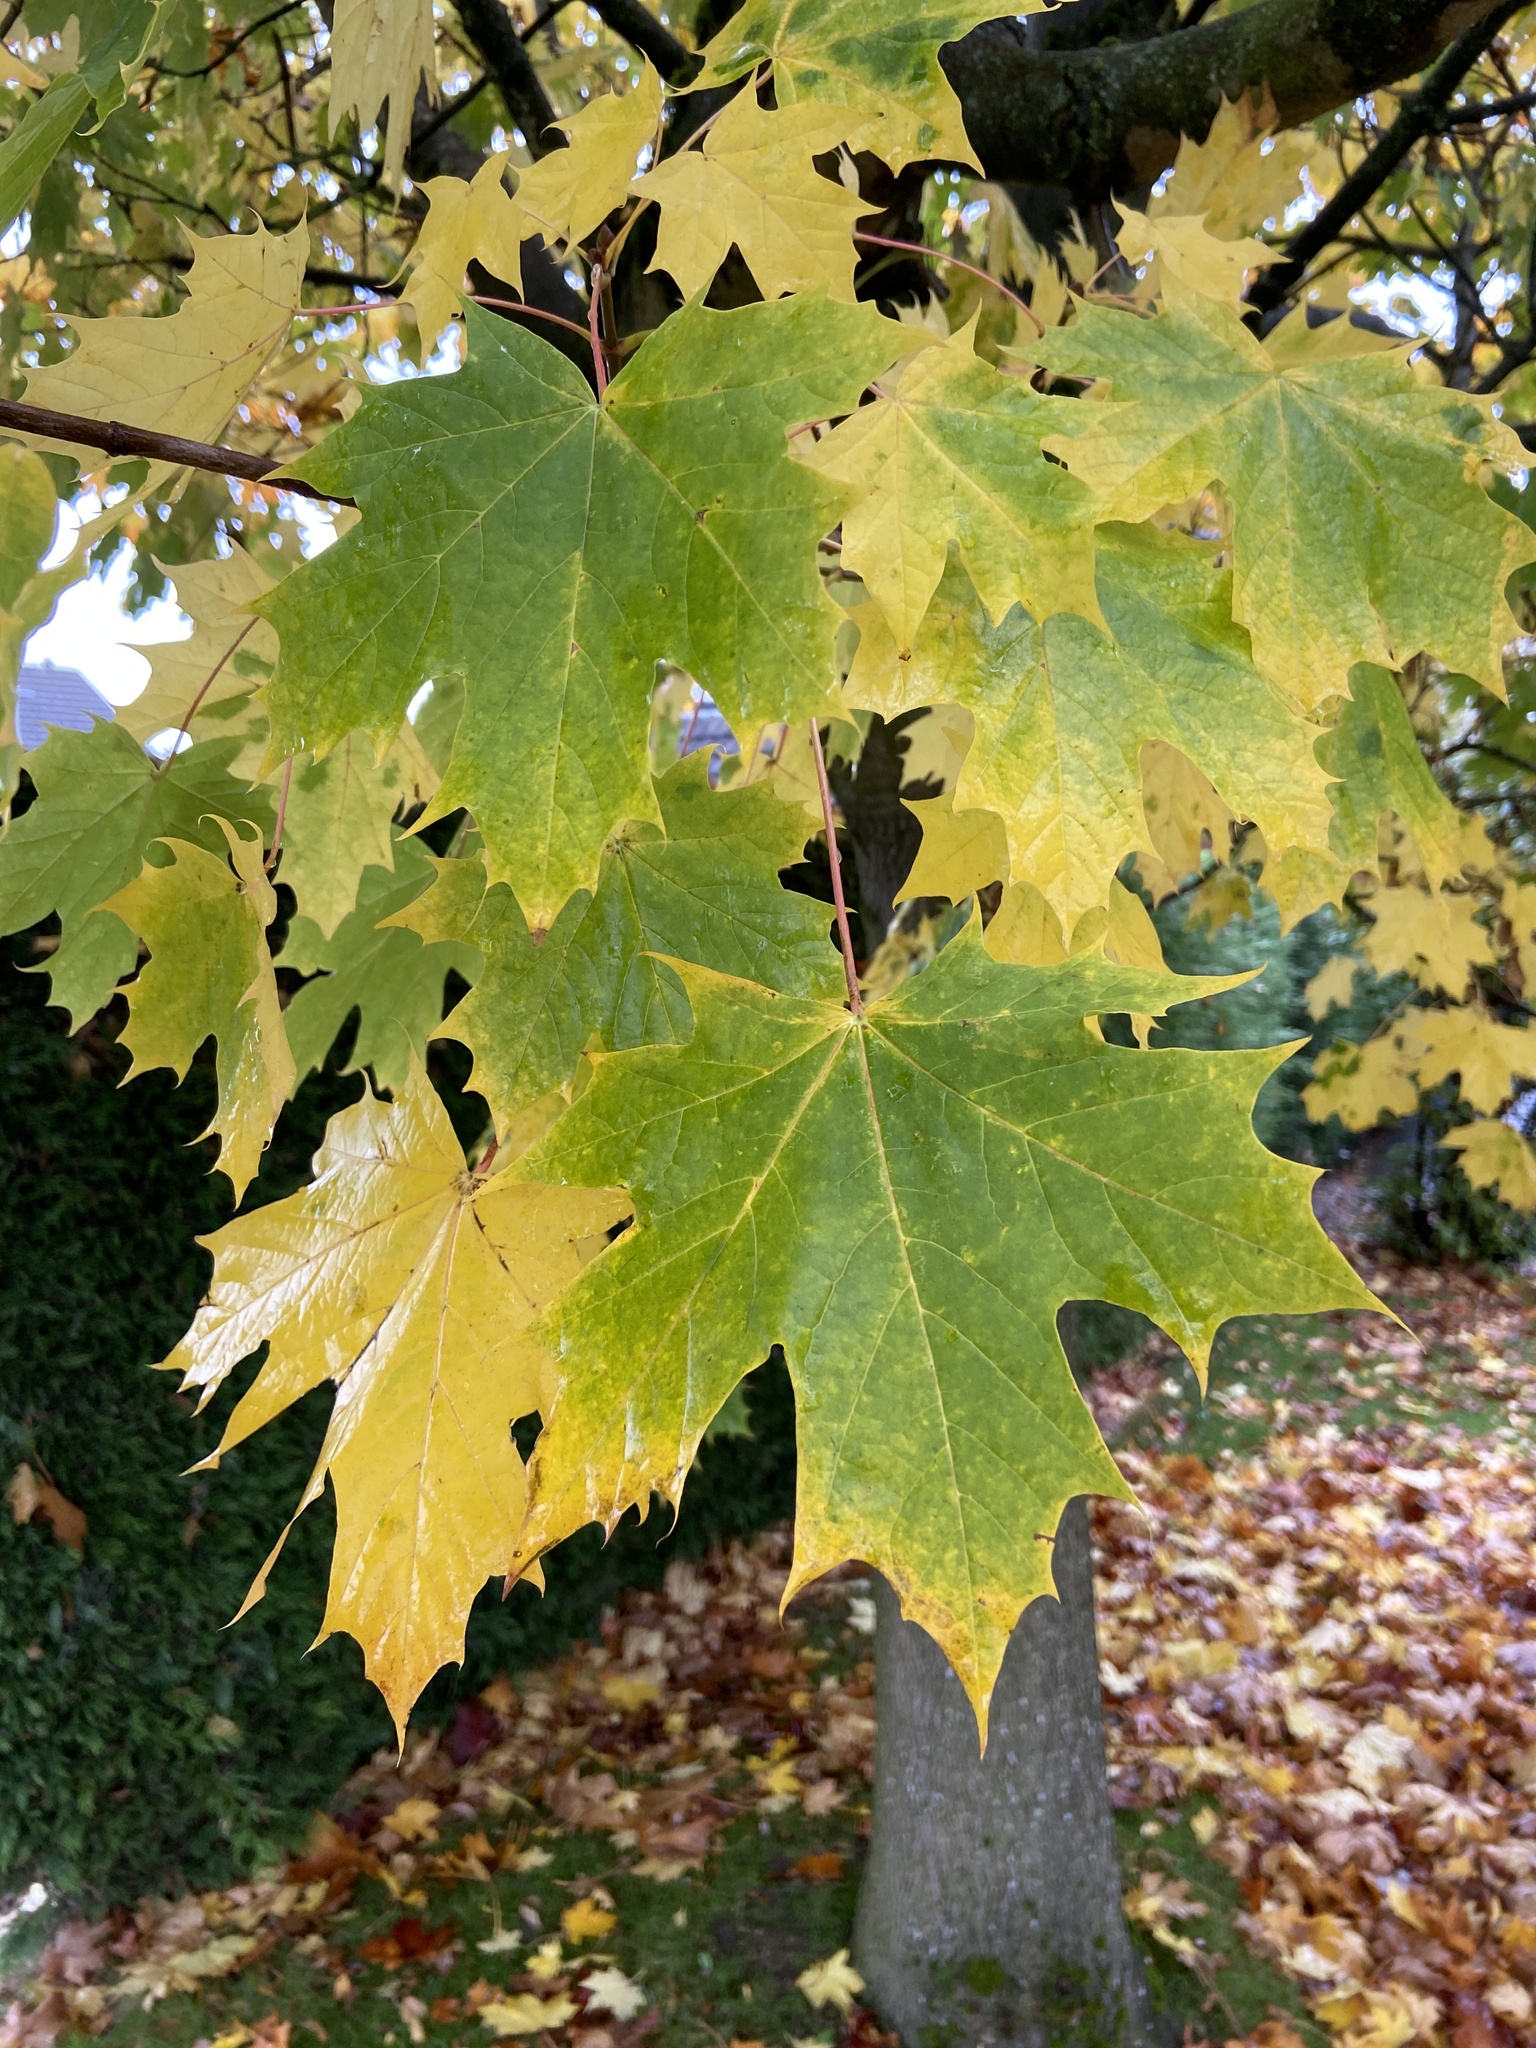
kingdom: Plantae
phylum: Tracheophyta
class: Magnoliopsida
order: Sapindales
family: Sapindaceae
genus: Acer
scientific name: Acer platanoides
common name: Norway maple
